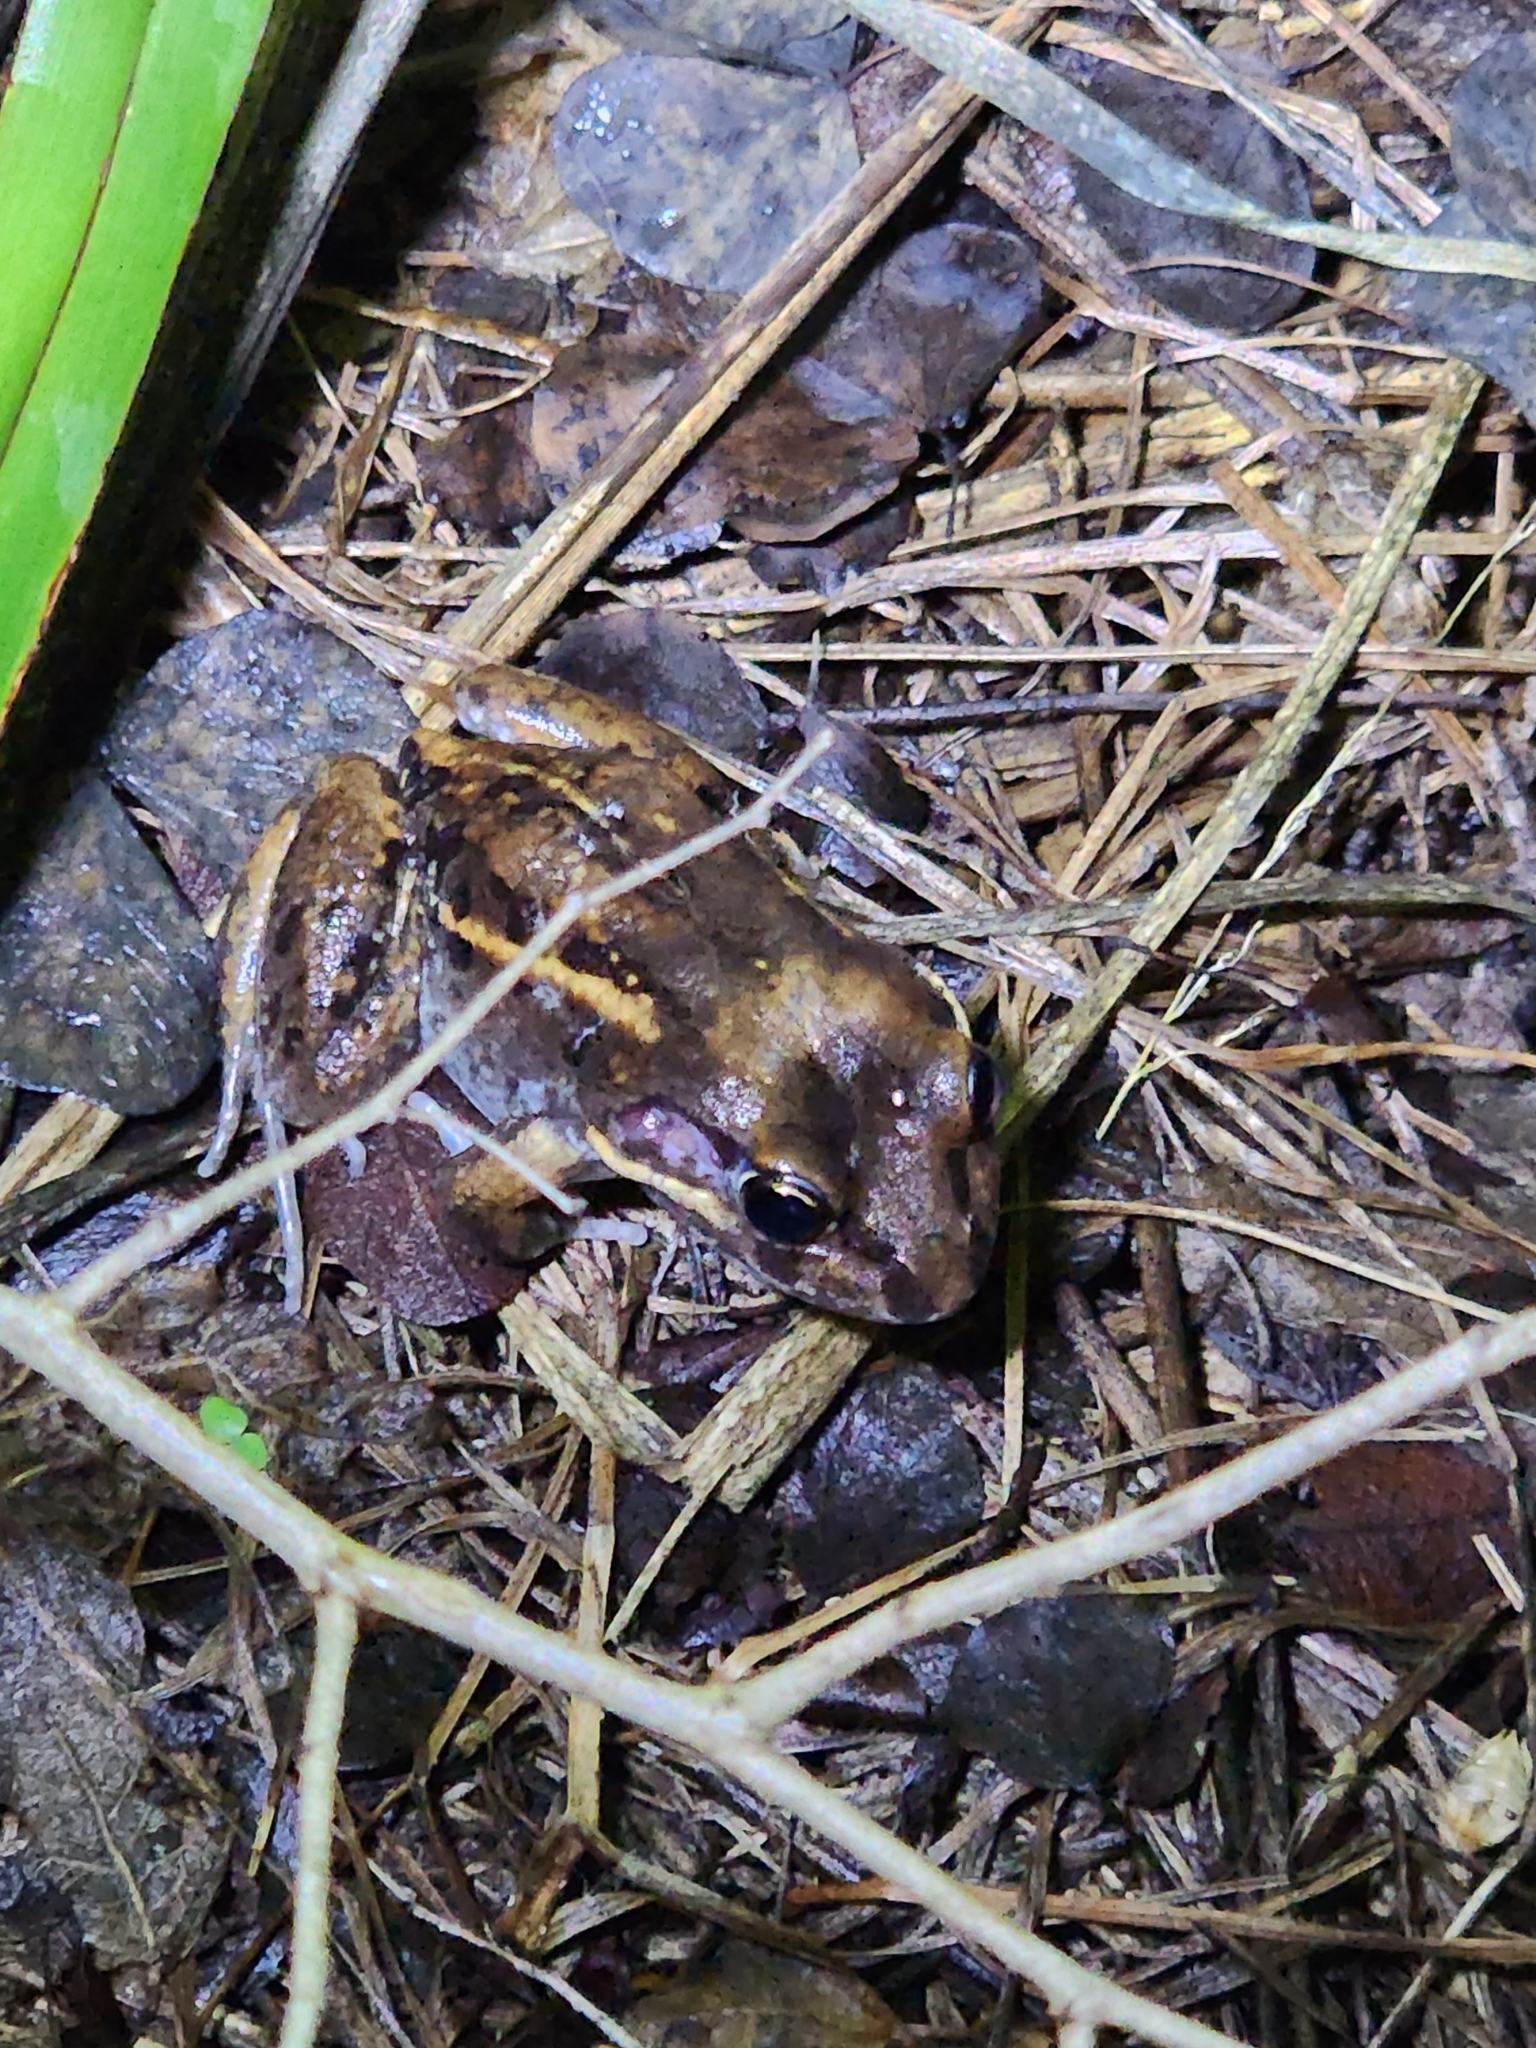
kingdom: Animalia
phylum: Chordata
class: Amphibia
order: Anura
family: Limnodynastidae
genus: Limnodynastes
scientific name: Limnodynastes salmini
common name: Salmon-striped frog
